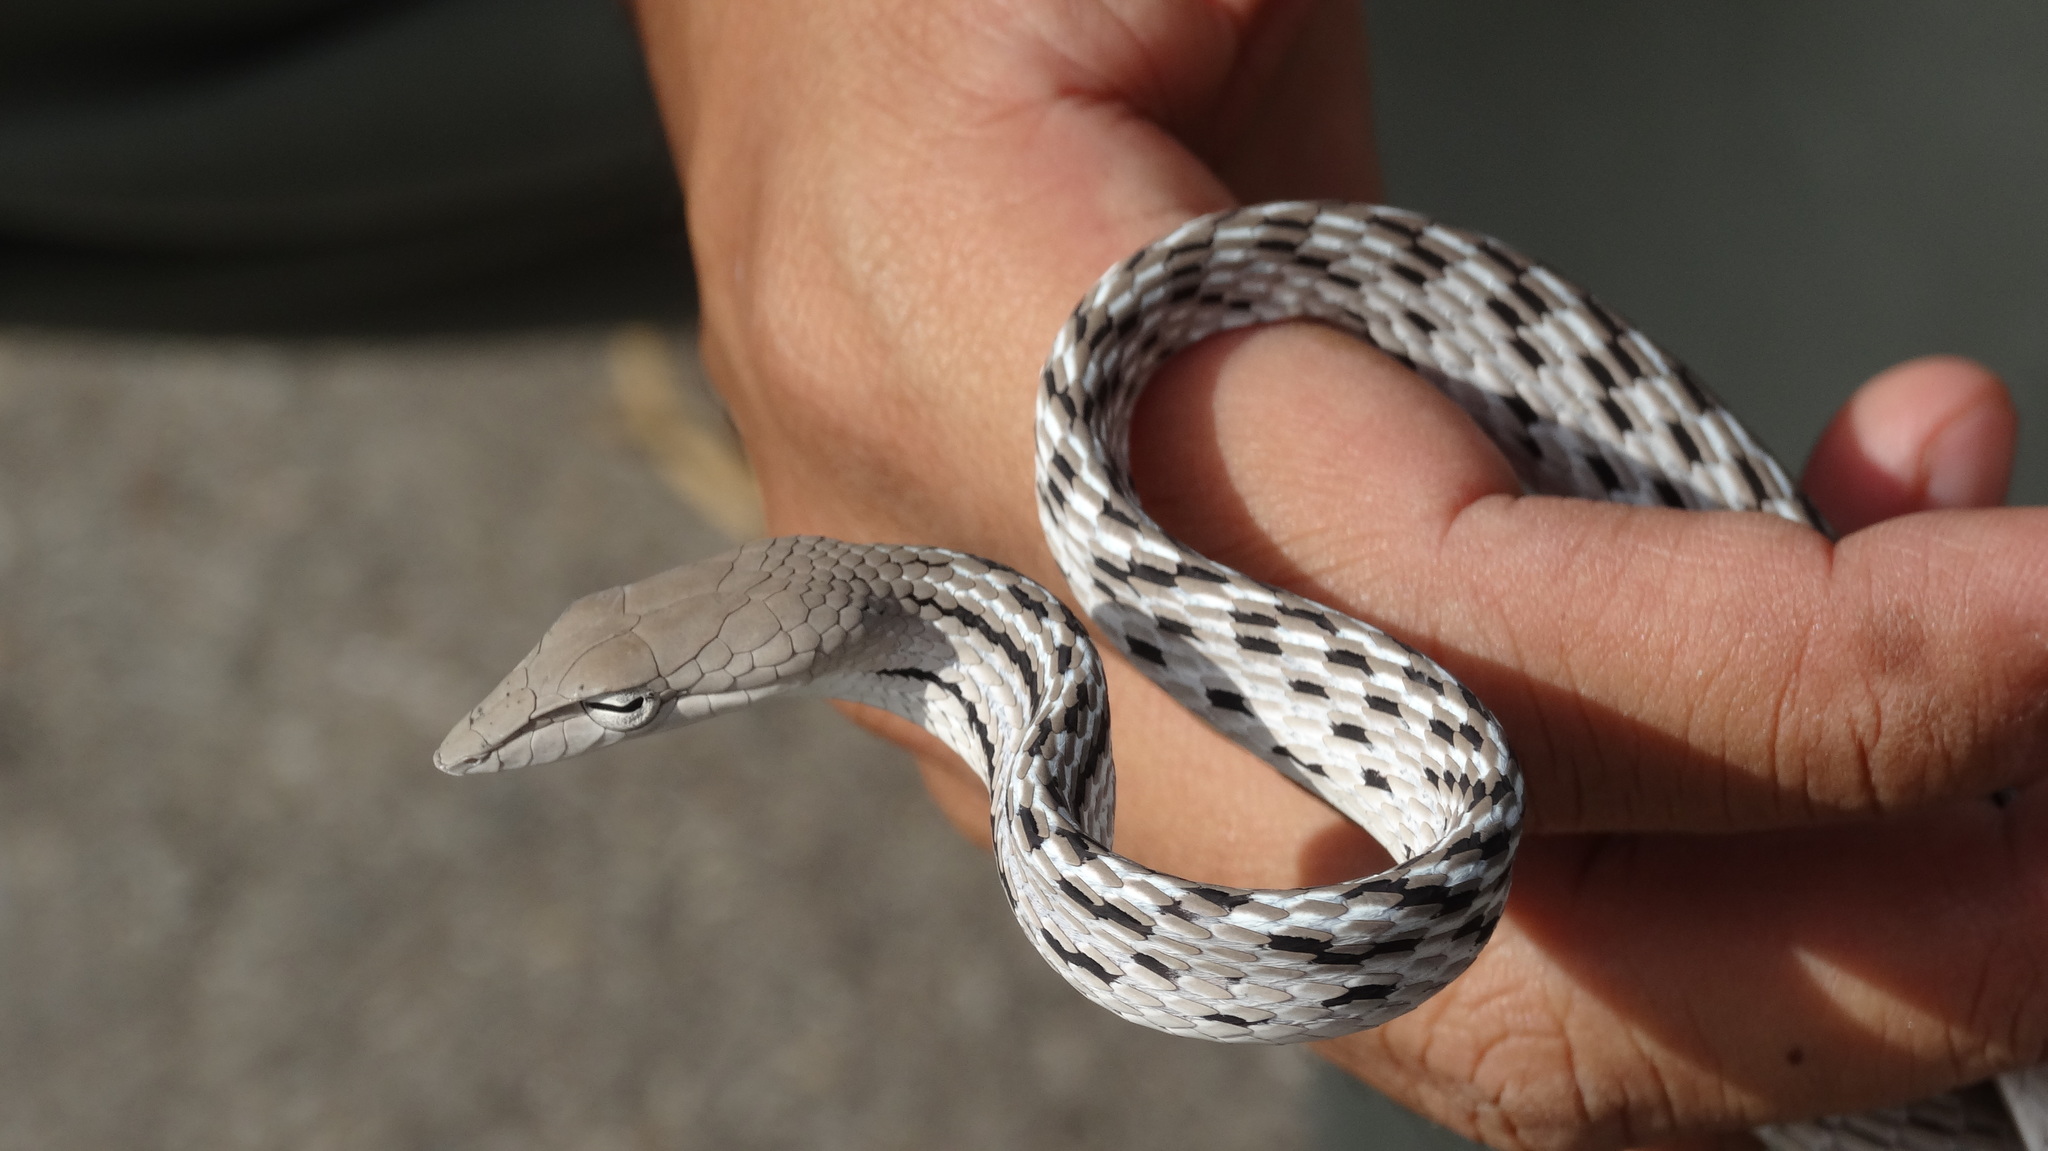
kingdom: Animalia
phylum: Chordata
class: Squamata
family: Colubridae
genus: Ahaetulla
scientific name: Ahaetulla prasina
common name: Oriental whip snake
